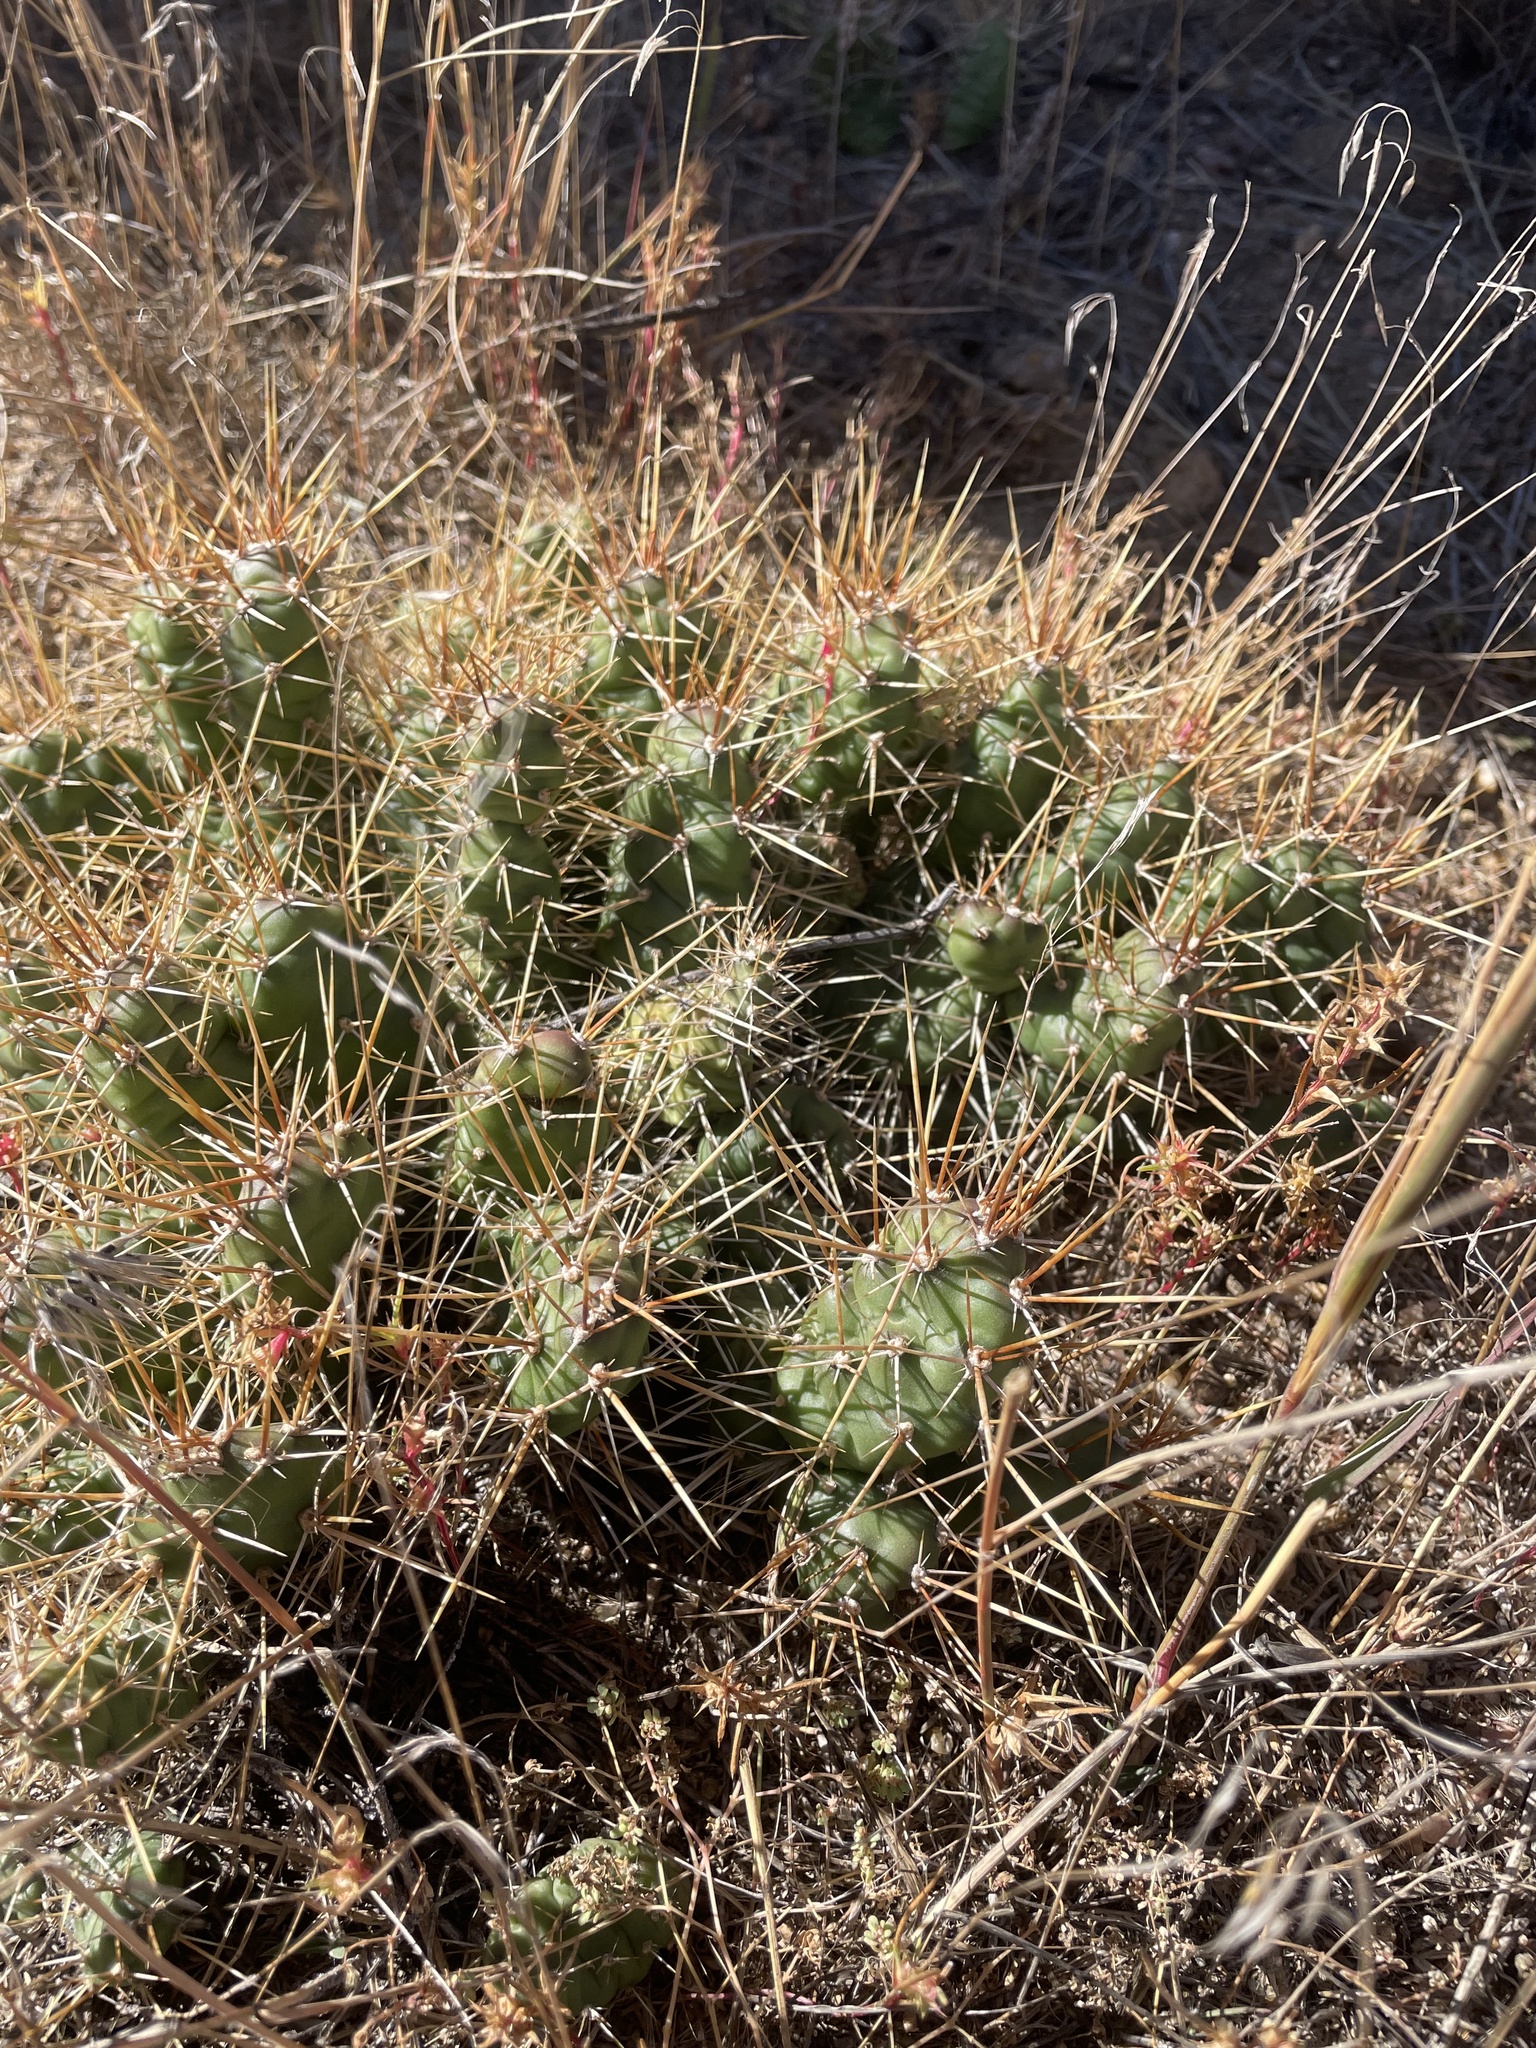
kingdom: Plantae
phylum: Tracheophyta
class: Magnoliopsida
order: Caryophyllales
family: Cactaceae
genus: Opuntia
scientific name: Opuntia fragilis
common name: Brittle cactus
